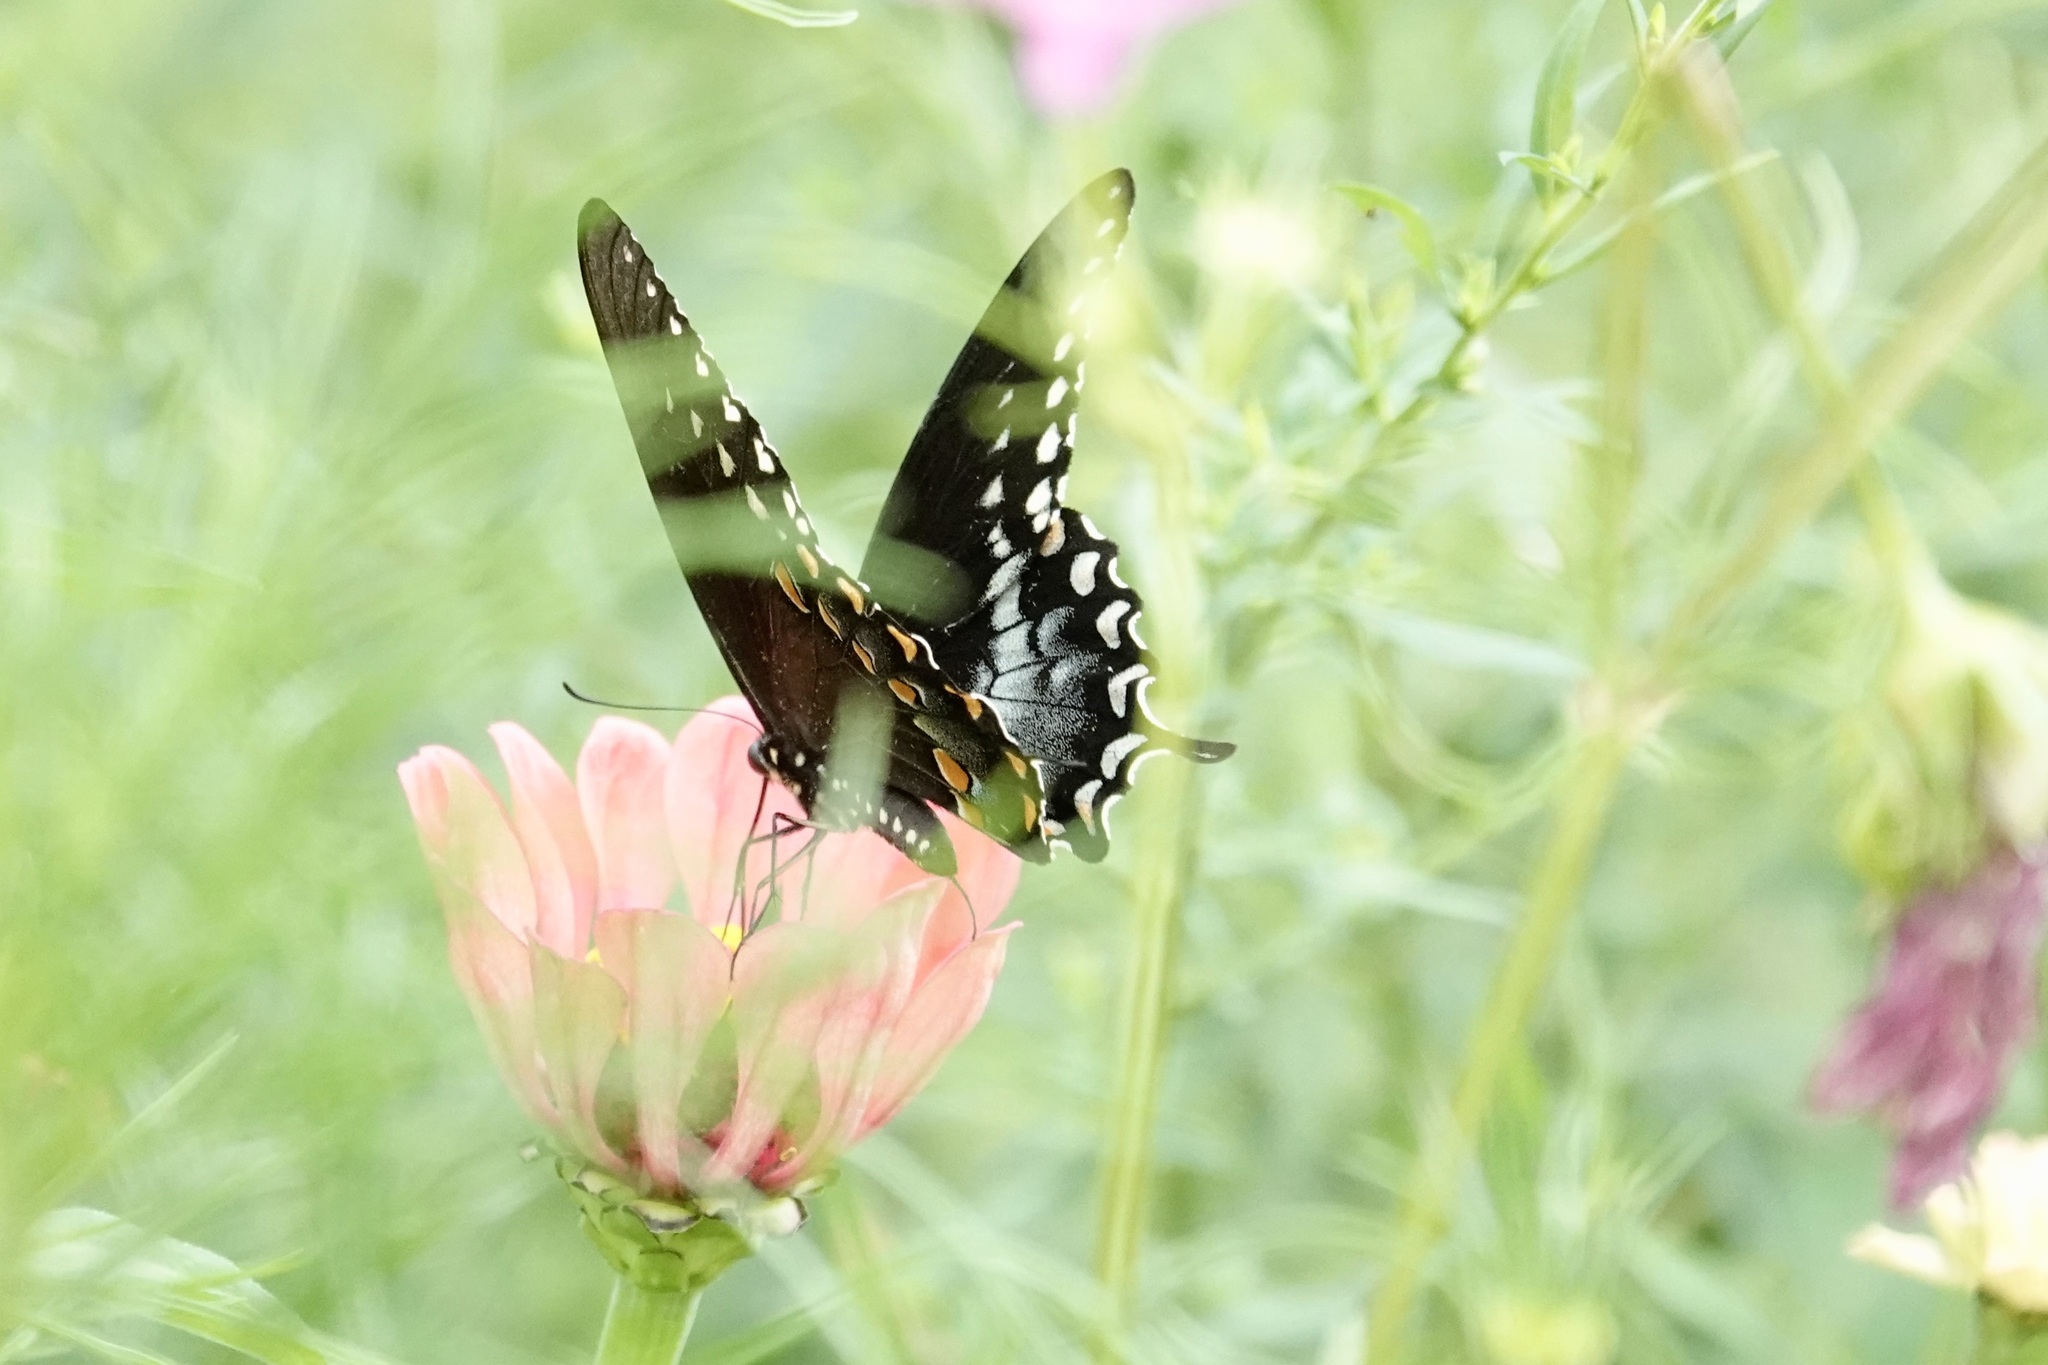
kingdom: Animalia
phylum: Arthropoda
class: Insecta
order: Lepidoptera
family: Papilionidae
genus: Papilio
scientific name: Papilio troilus
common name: Spicebush swallowtail
